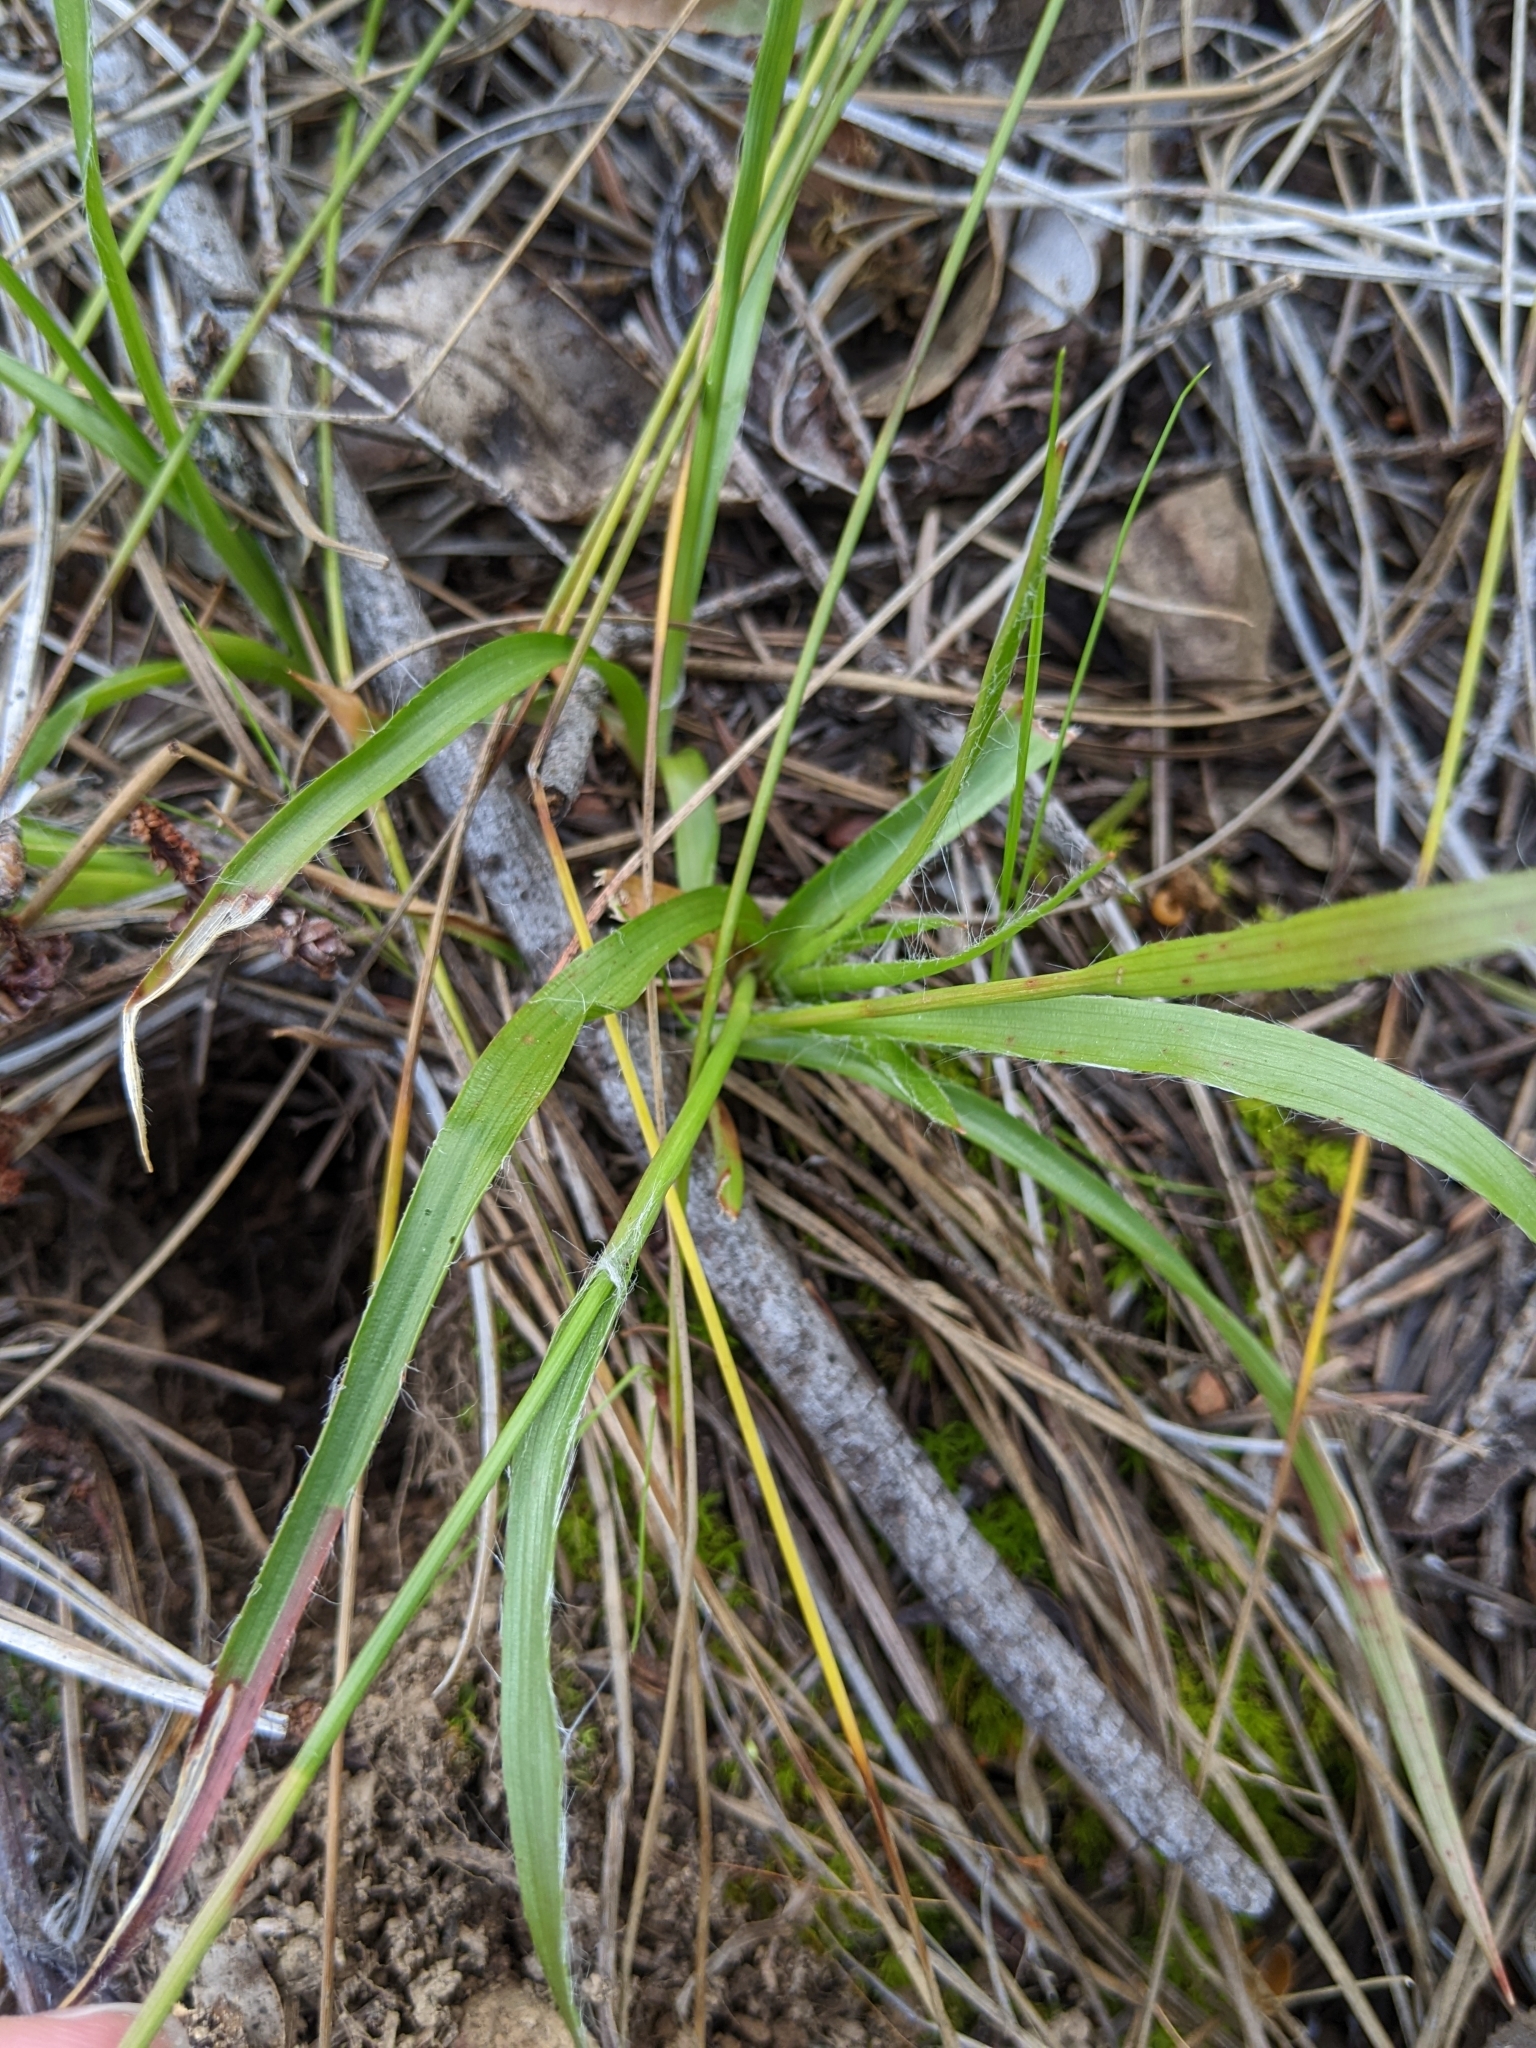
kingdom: Plantae
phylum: Tracheophyta
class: Liliopsida
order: Poales
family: Juncaceae
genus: Luzula
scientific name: Luzula comosa
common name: Pacific woodrush
